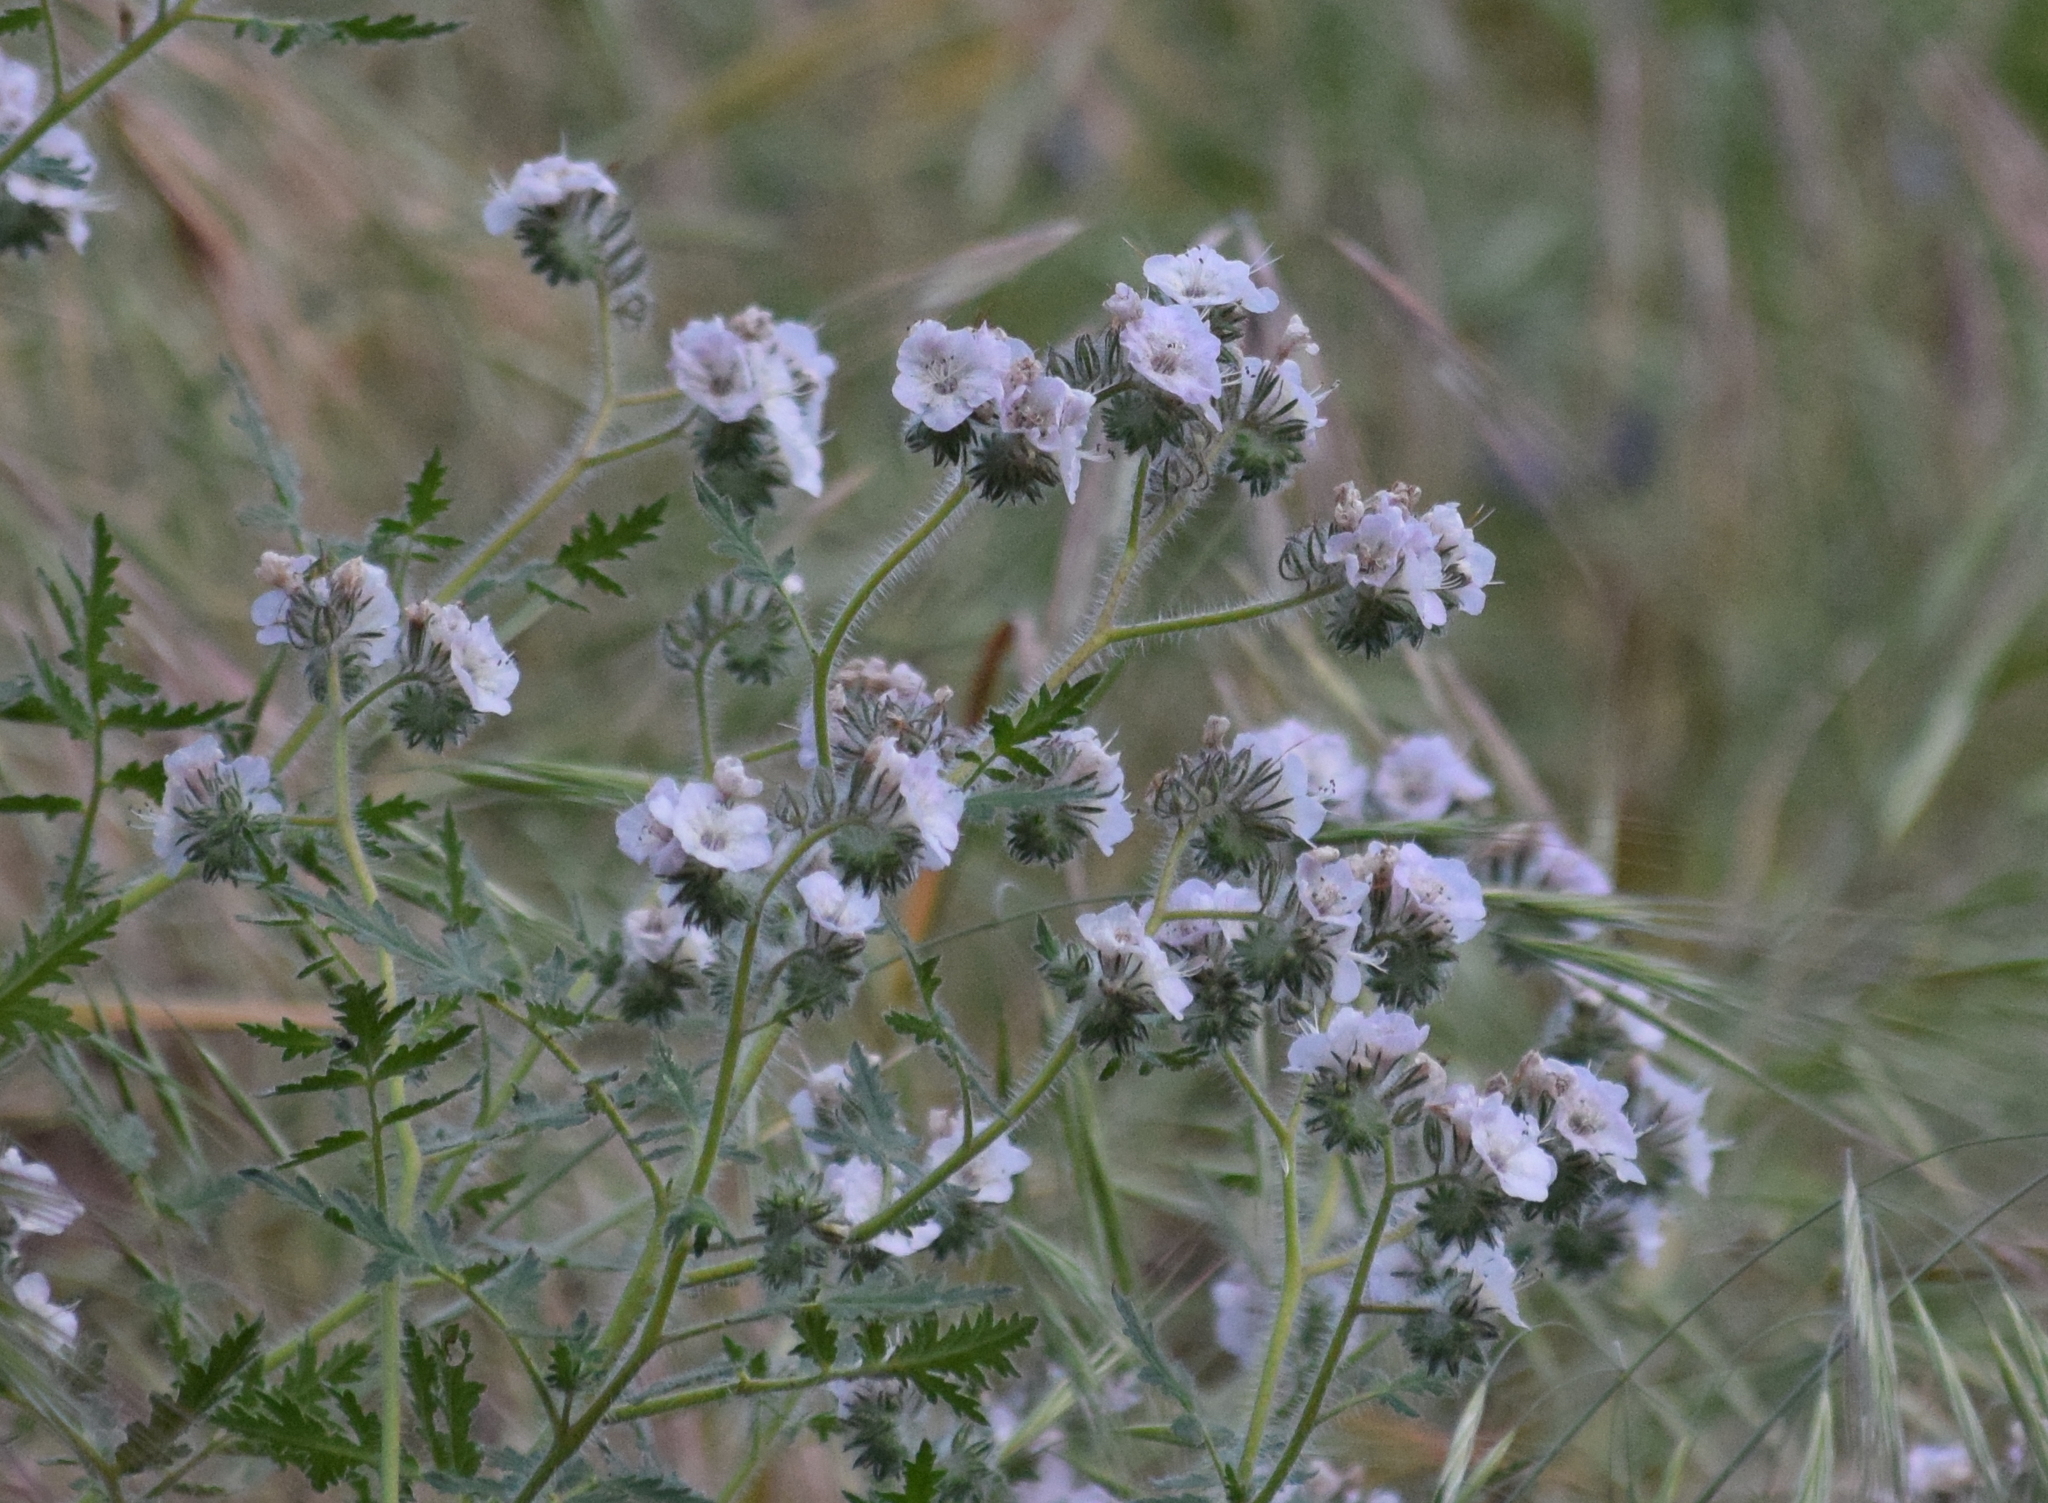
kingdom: Plantae
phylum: Tracheophyta
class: Magnoliopsida
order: Boraginales
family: Hydrophyllaceae
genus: Phacelia
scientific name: Phacelia cicutaria
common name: Caterpillar phacelia
